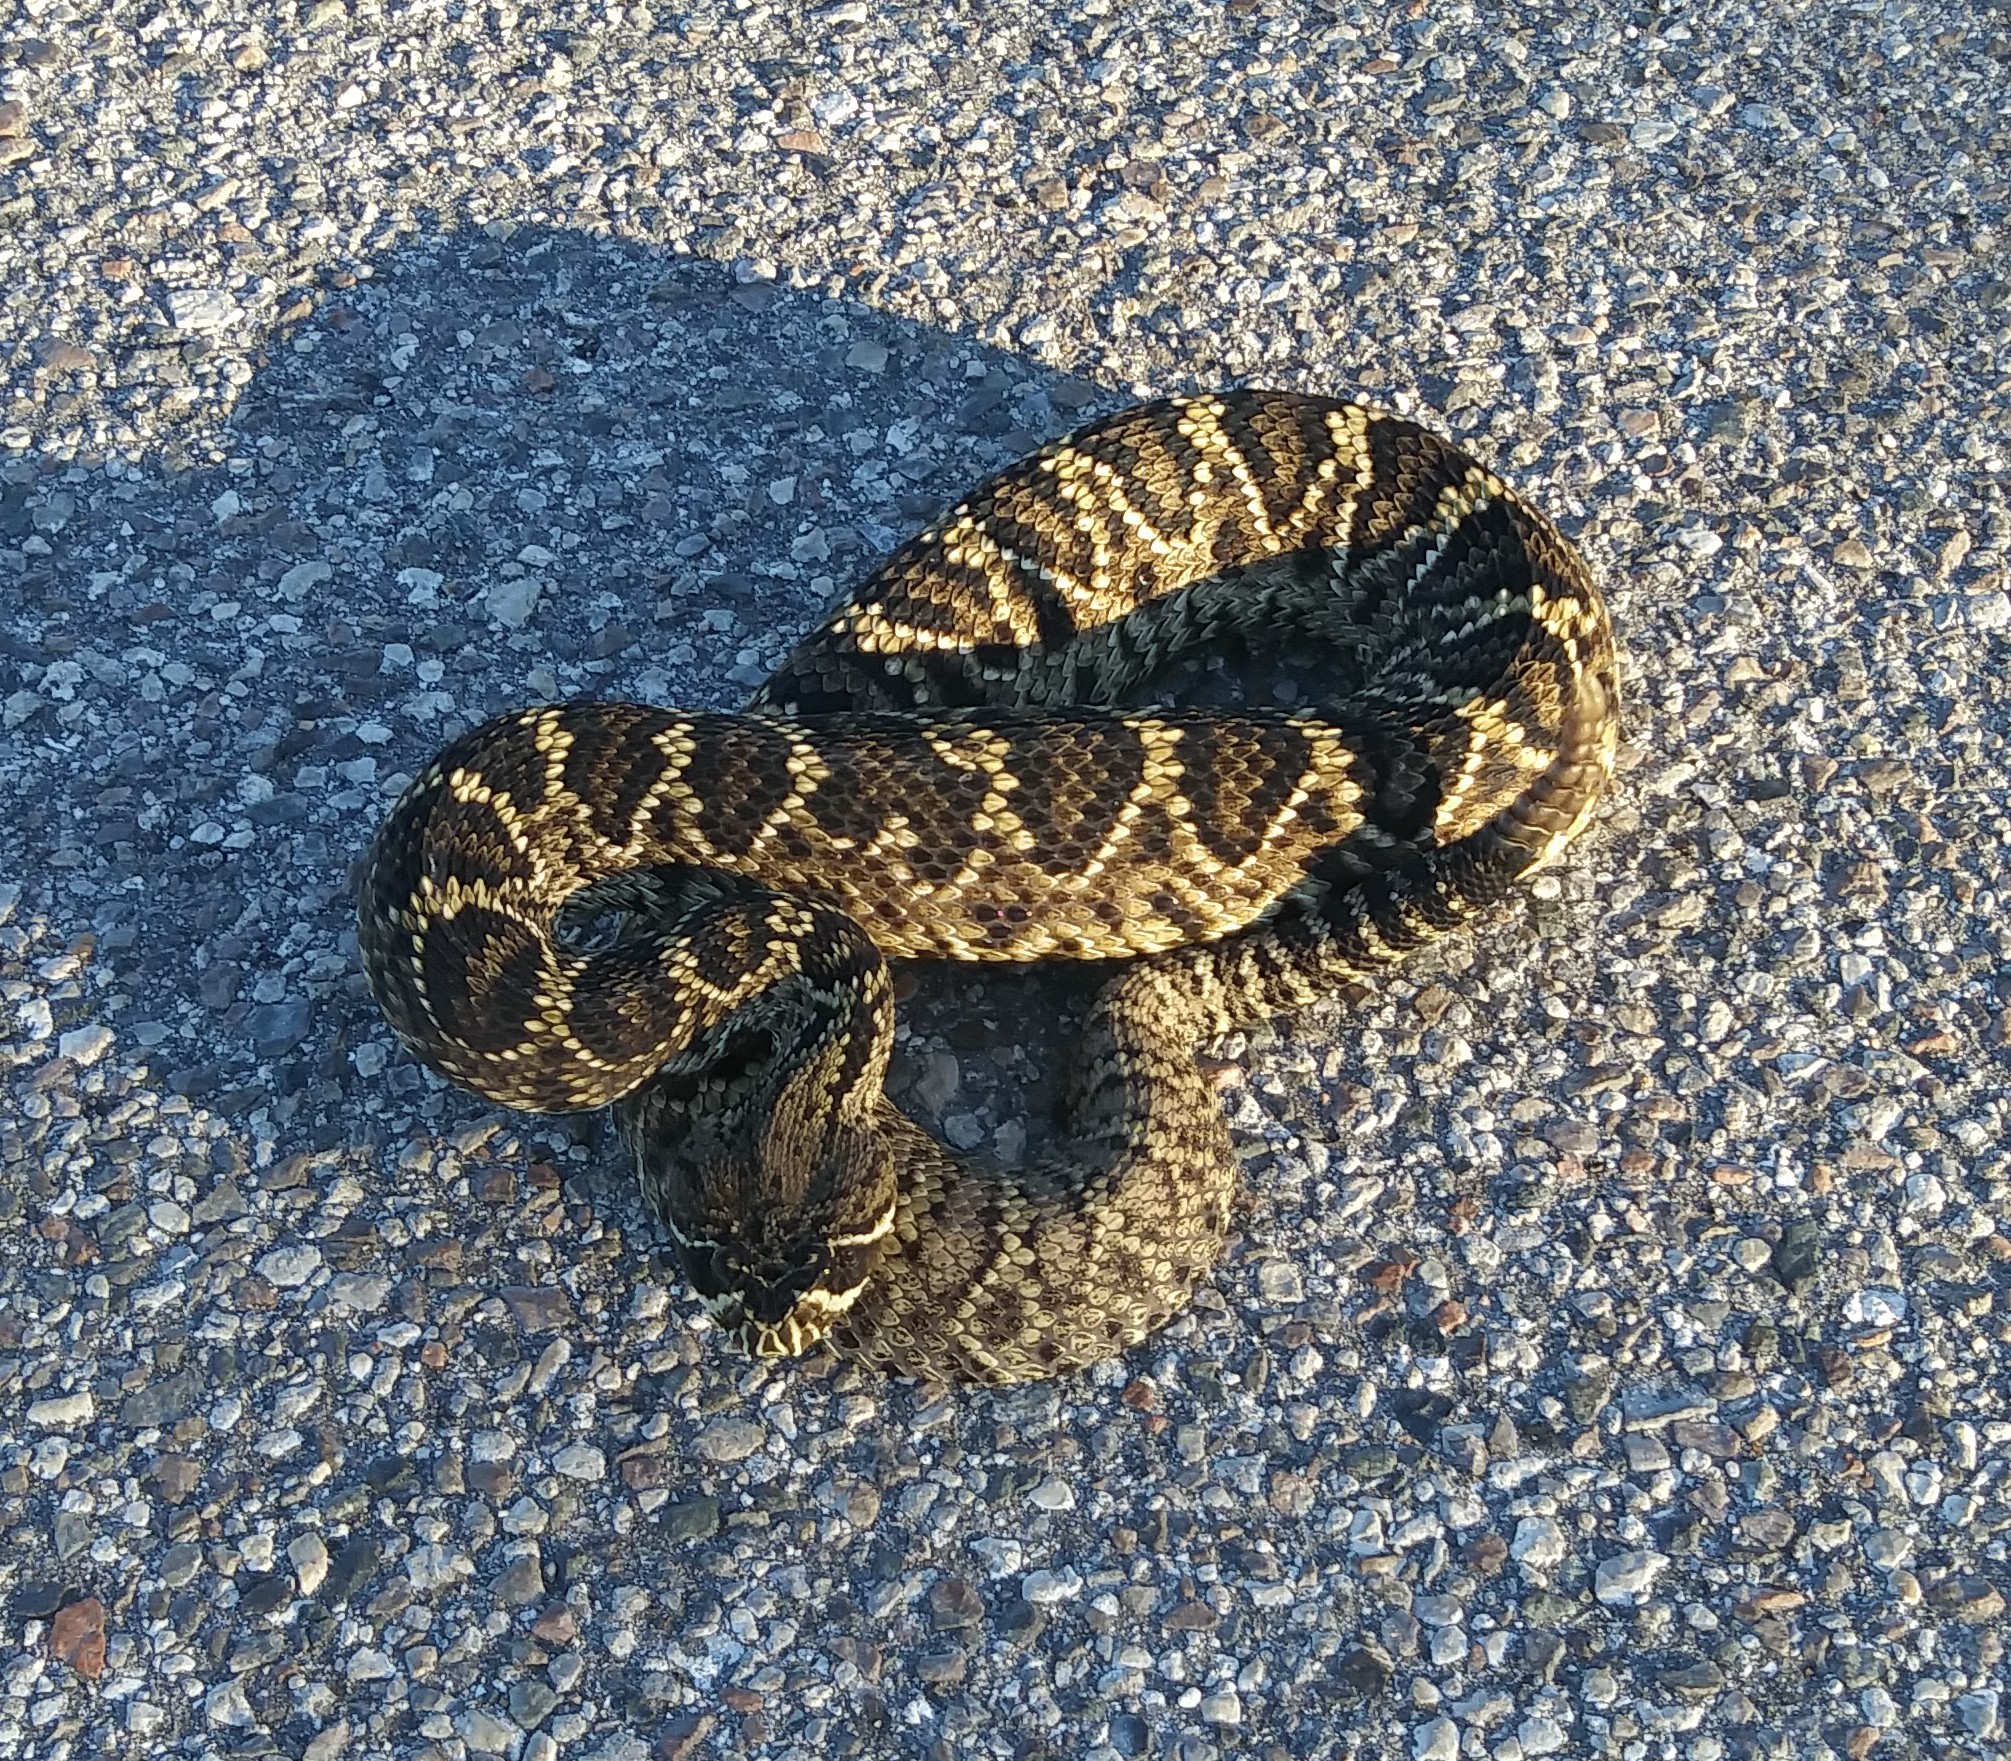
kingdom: Animalia
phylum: Chordata
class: Squamata
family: Viperidae
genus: Crotalus
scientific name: Crotalus adamanteus
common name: Eastern diamondback rattlesnake
